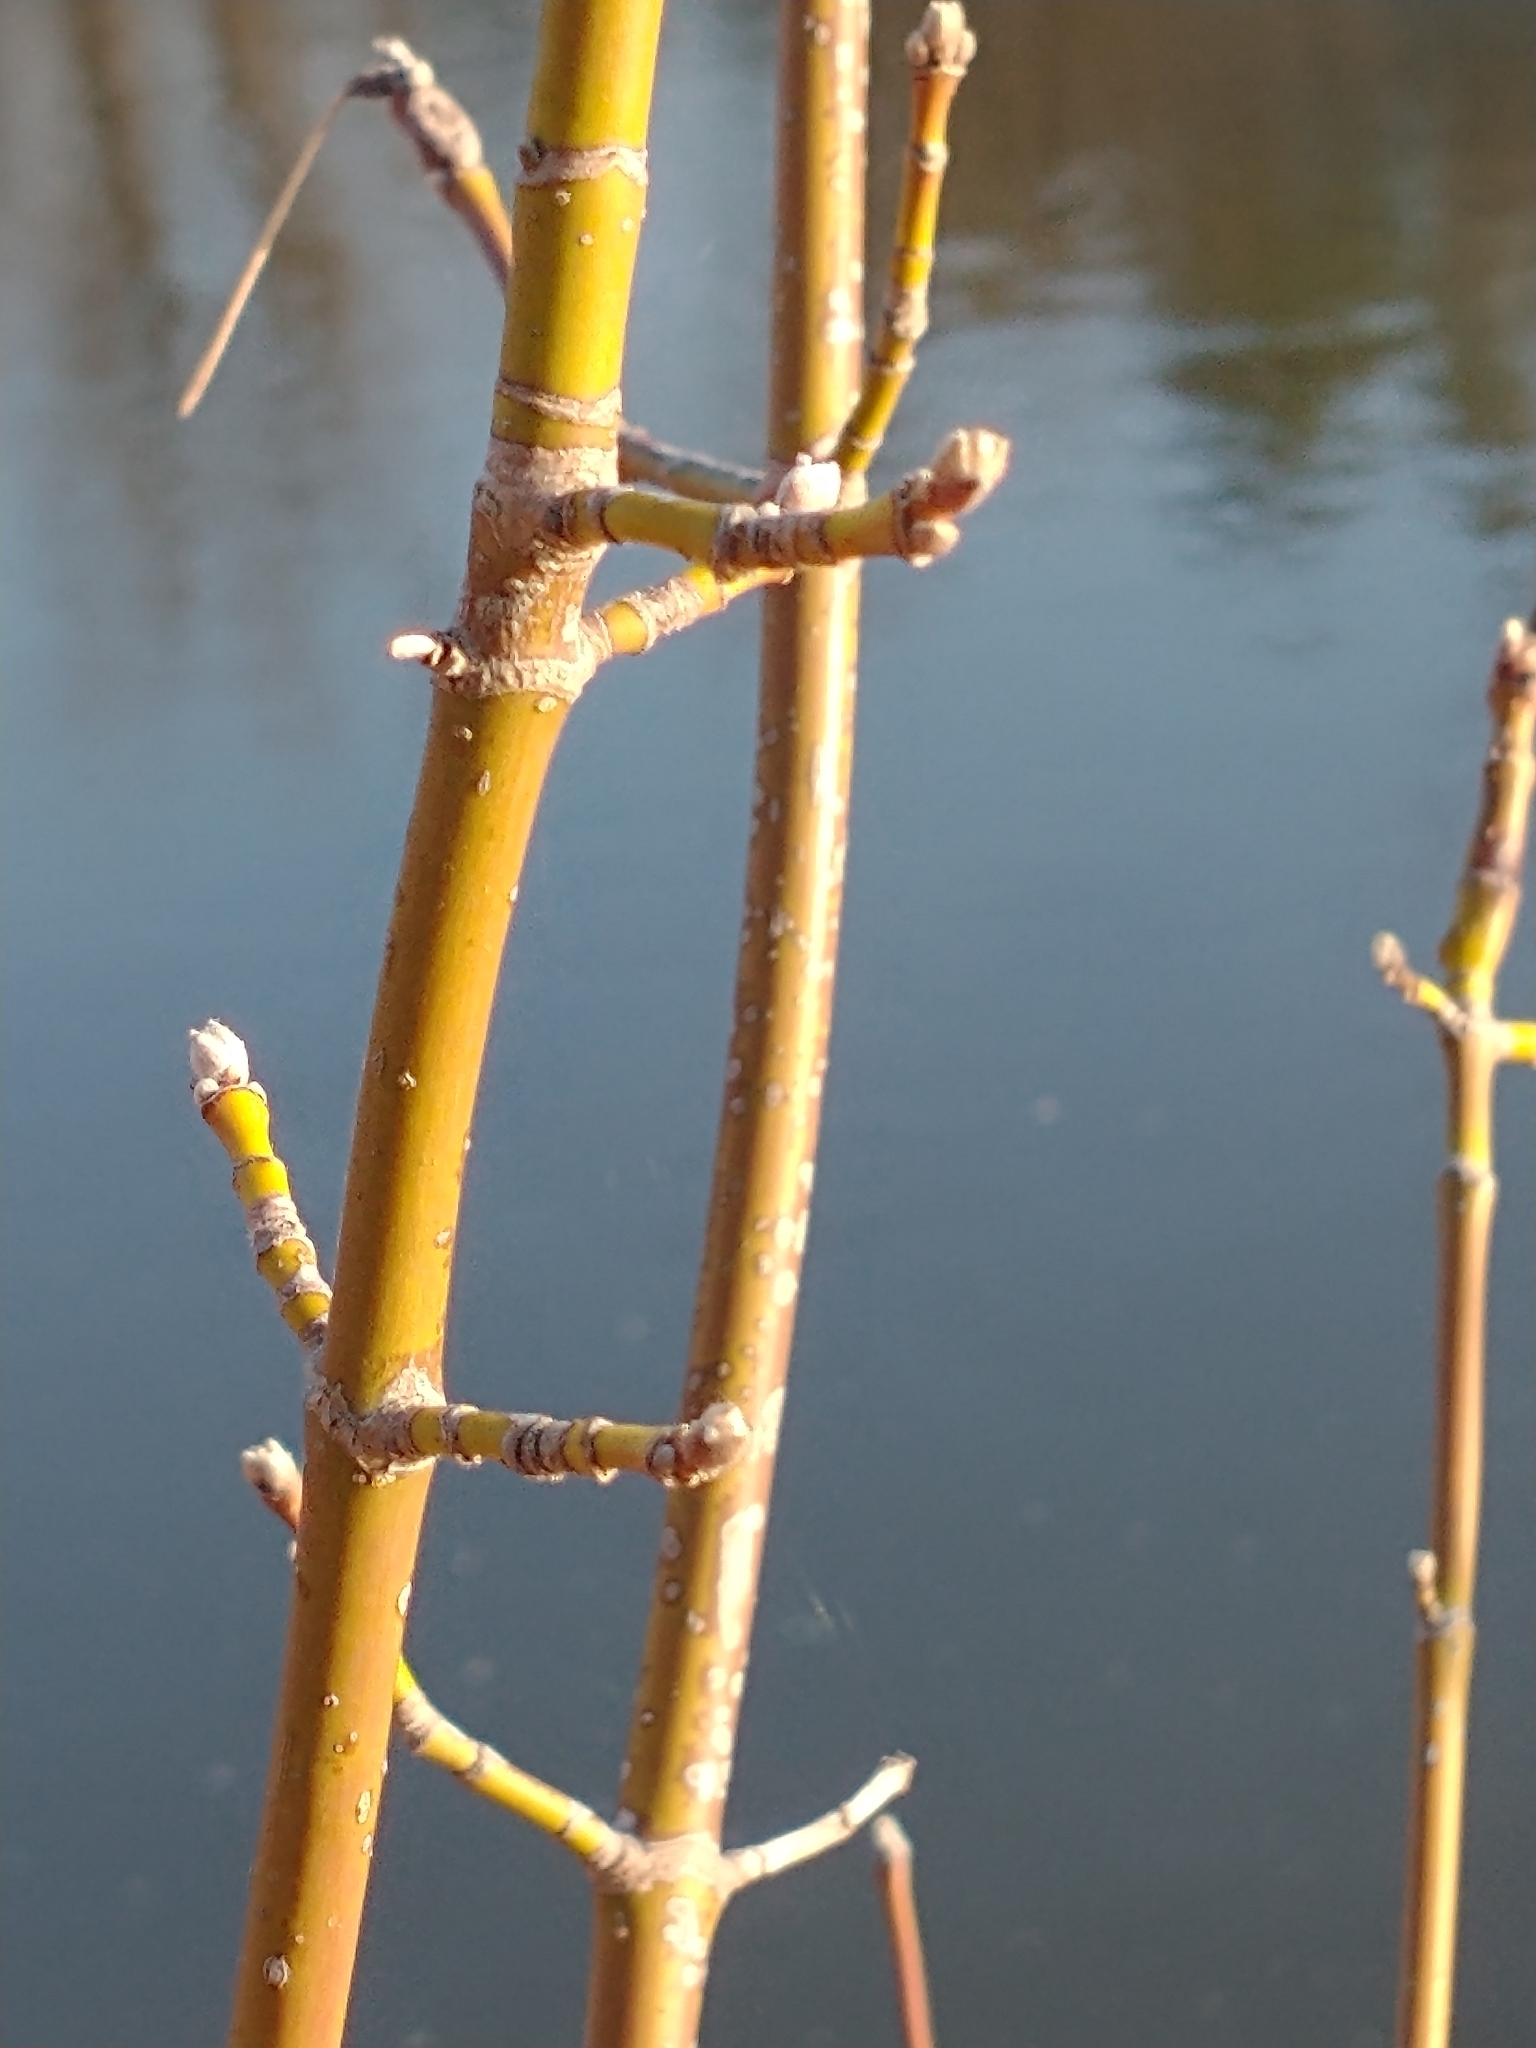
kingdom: Plantae
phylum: Tracheophyta
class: Magnoliopsida
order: Sapindales
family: Sapindaceae
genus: Acer
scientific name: Acer negundo
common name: Ashleaf maple
